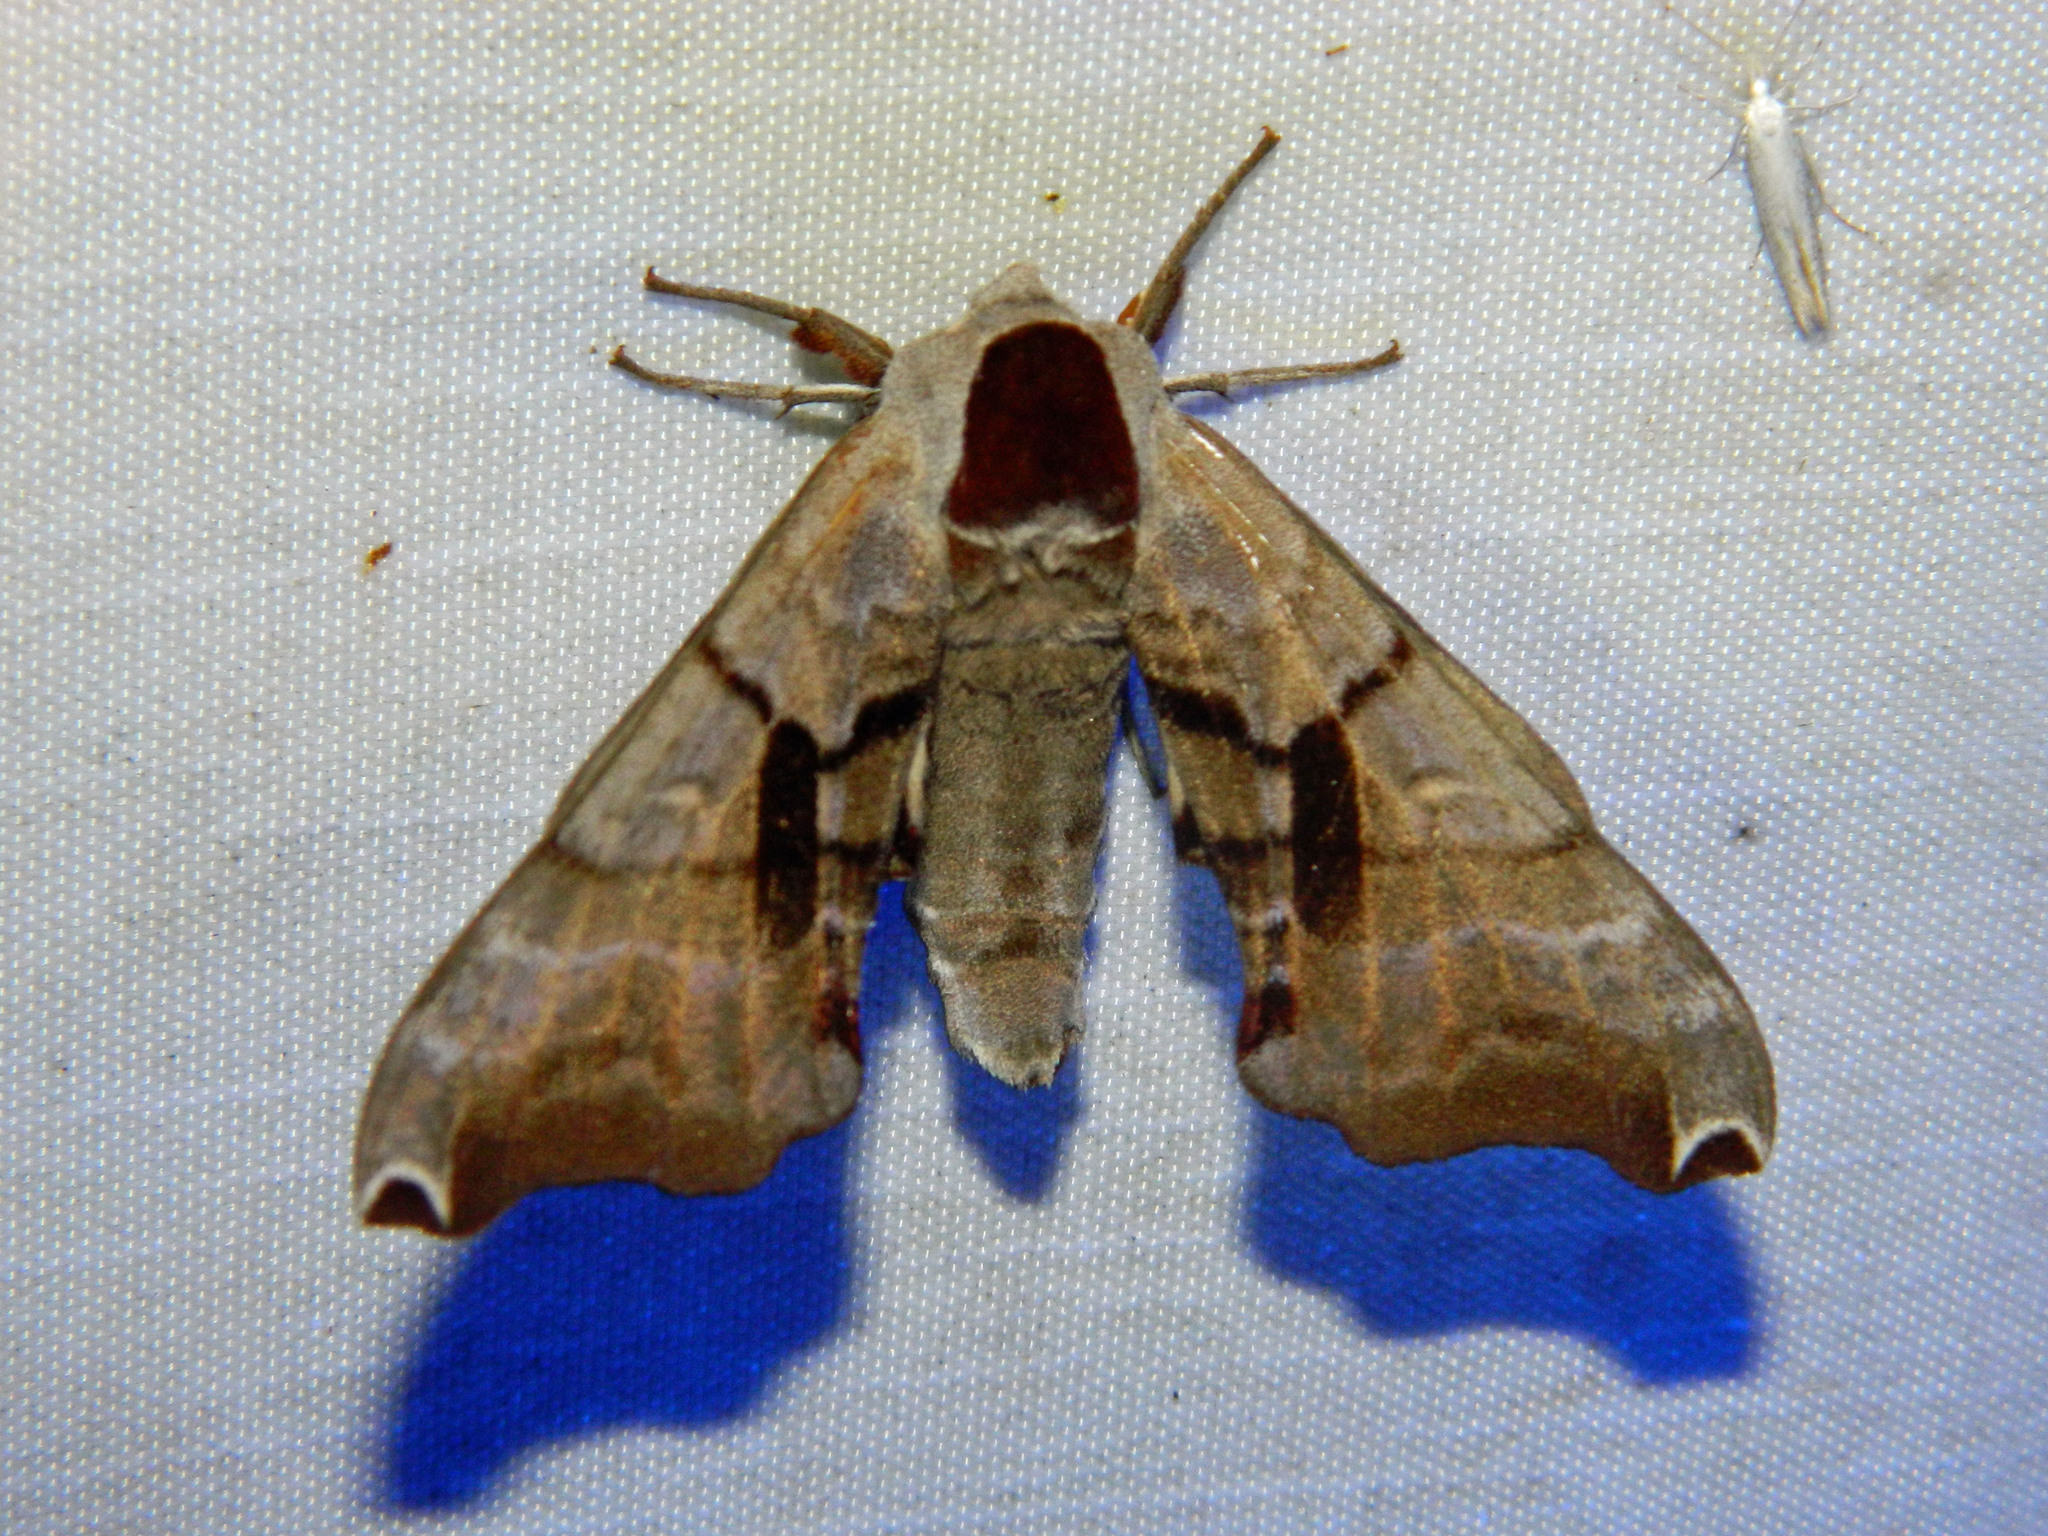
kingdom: Animalia
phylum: Arthropoda
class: Insecta
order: Lepidoptera
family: Sphingidae
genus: Smerinthus
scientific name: Smerinthus jamaicensis
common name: Twin spotted sphinx
